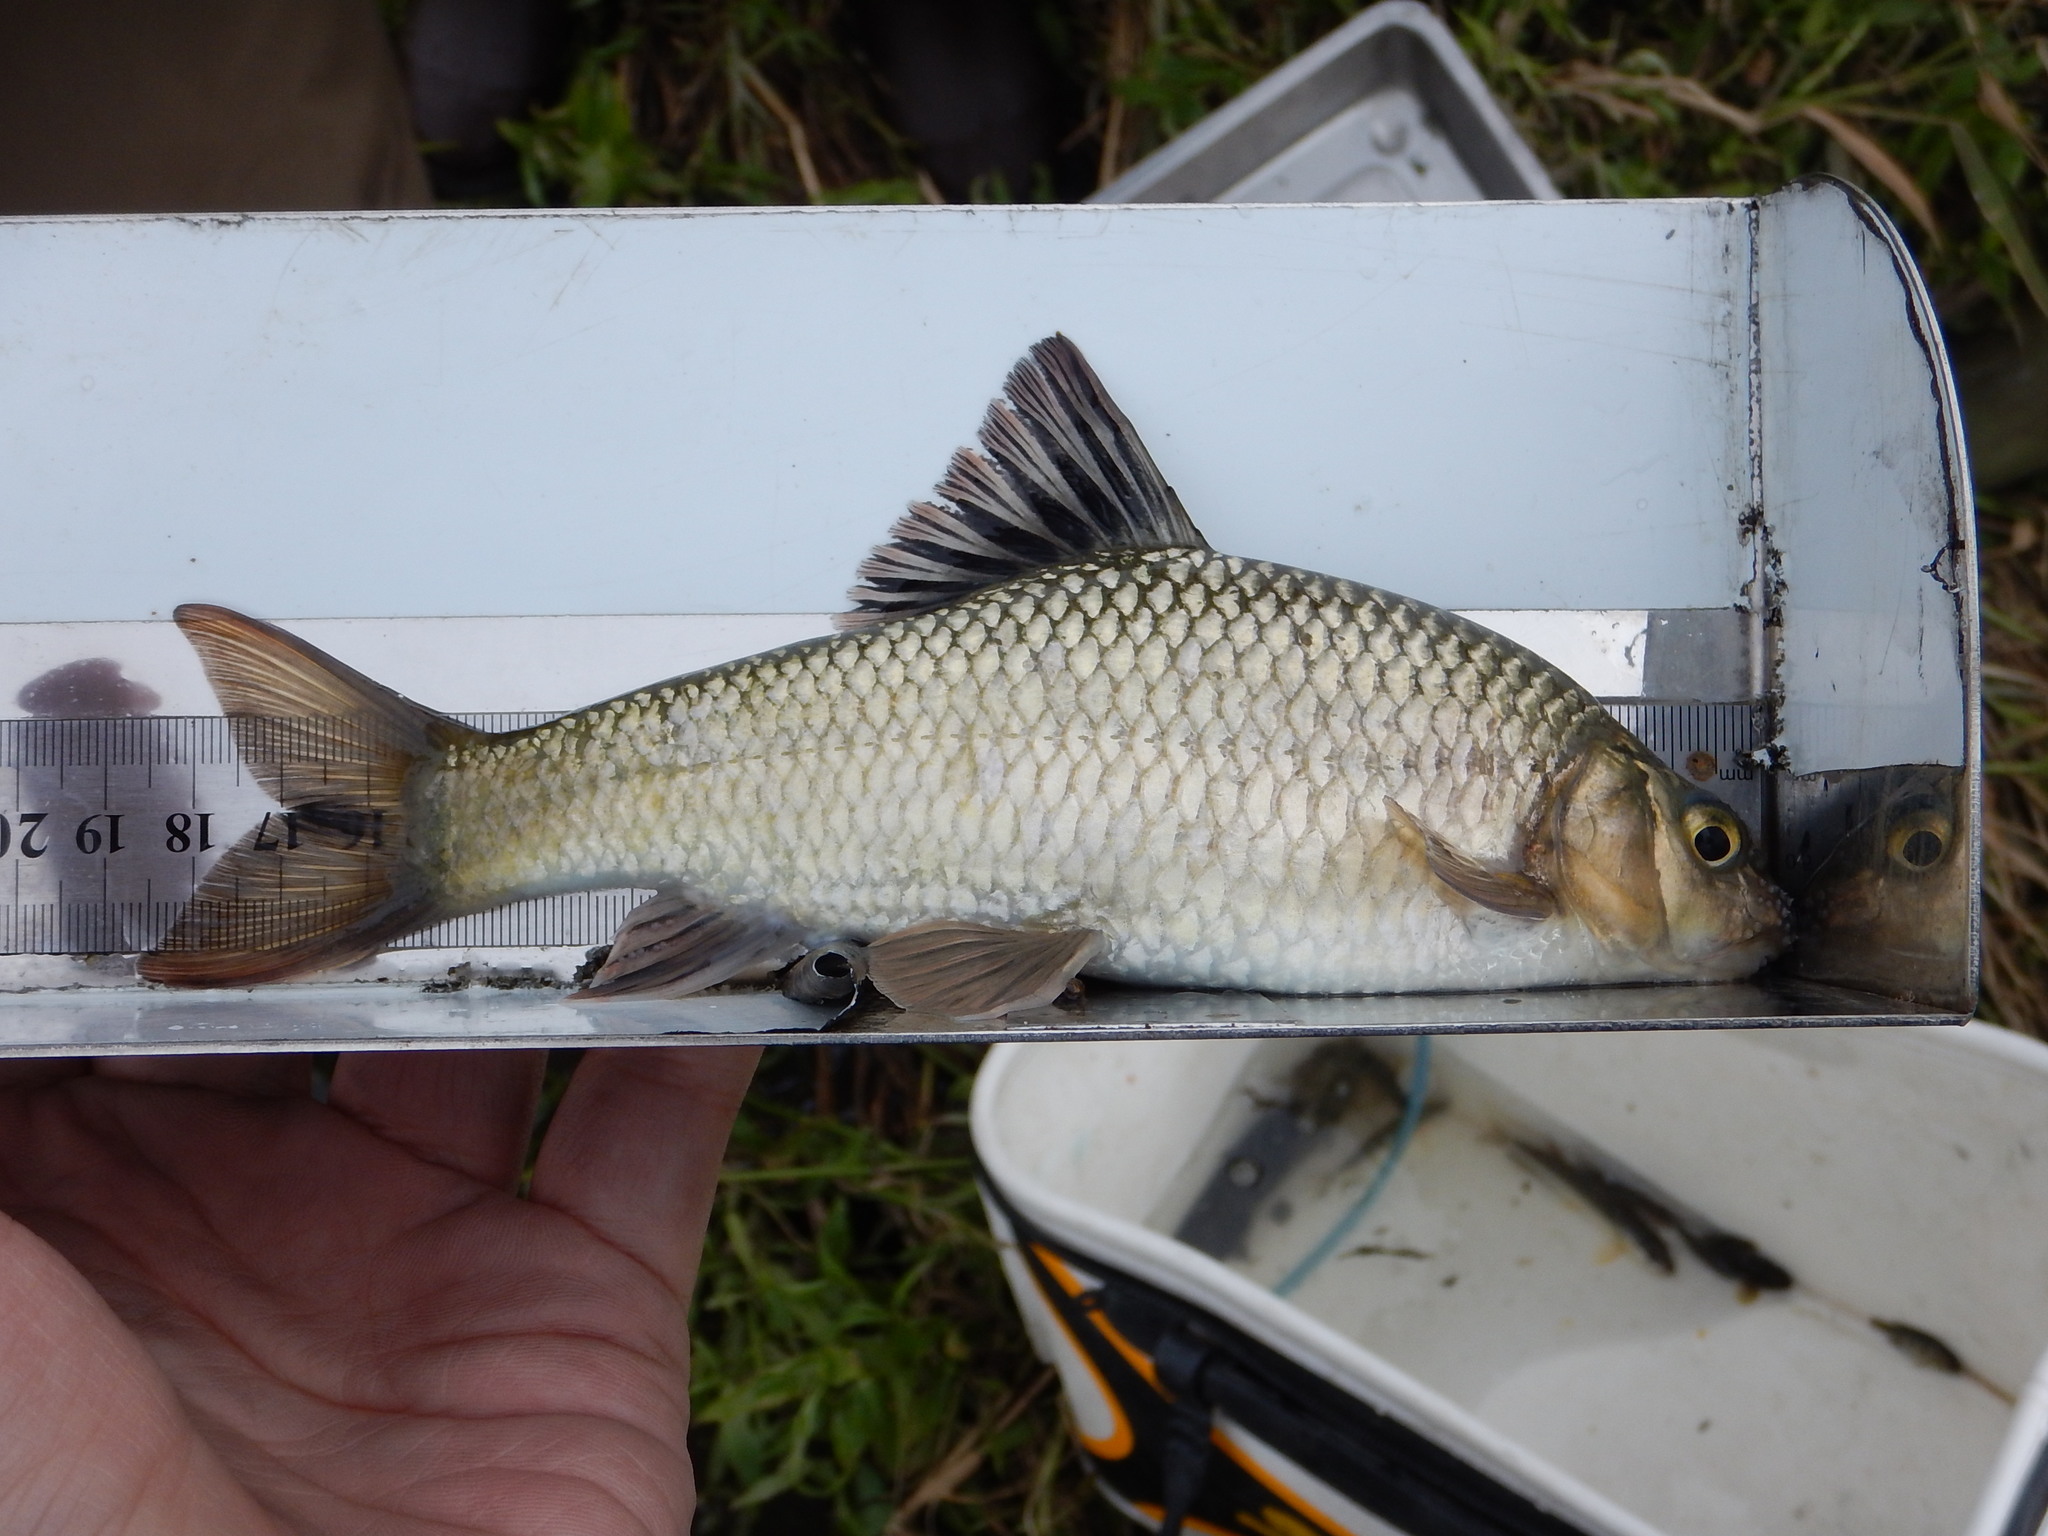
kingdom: Animalia
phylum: Chordata
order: Cypriniformes
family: Cyprinidae
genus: Acrossocheilus
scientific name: Acrossocheilus paradoxus
